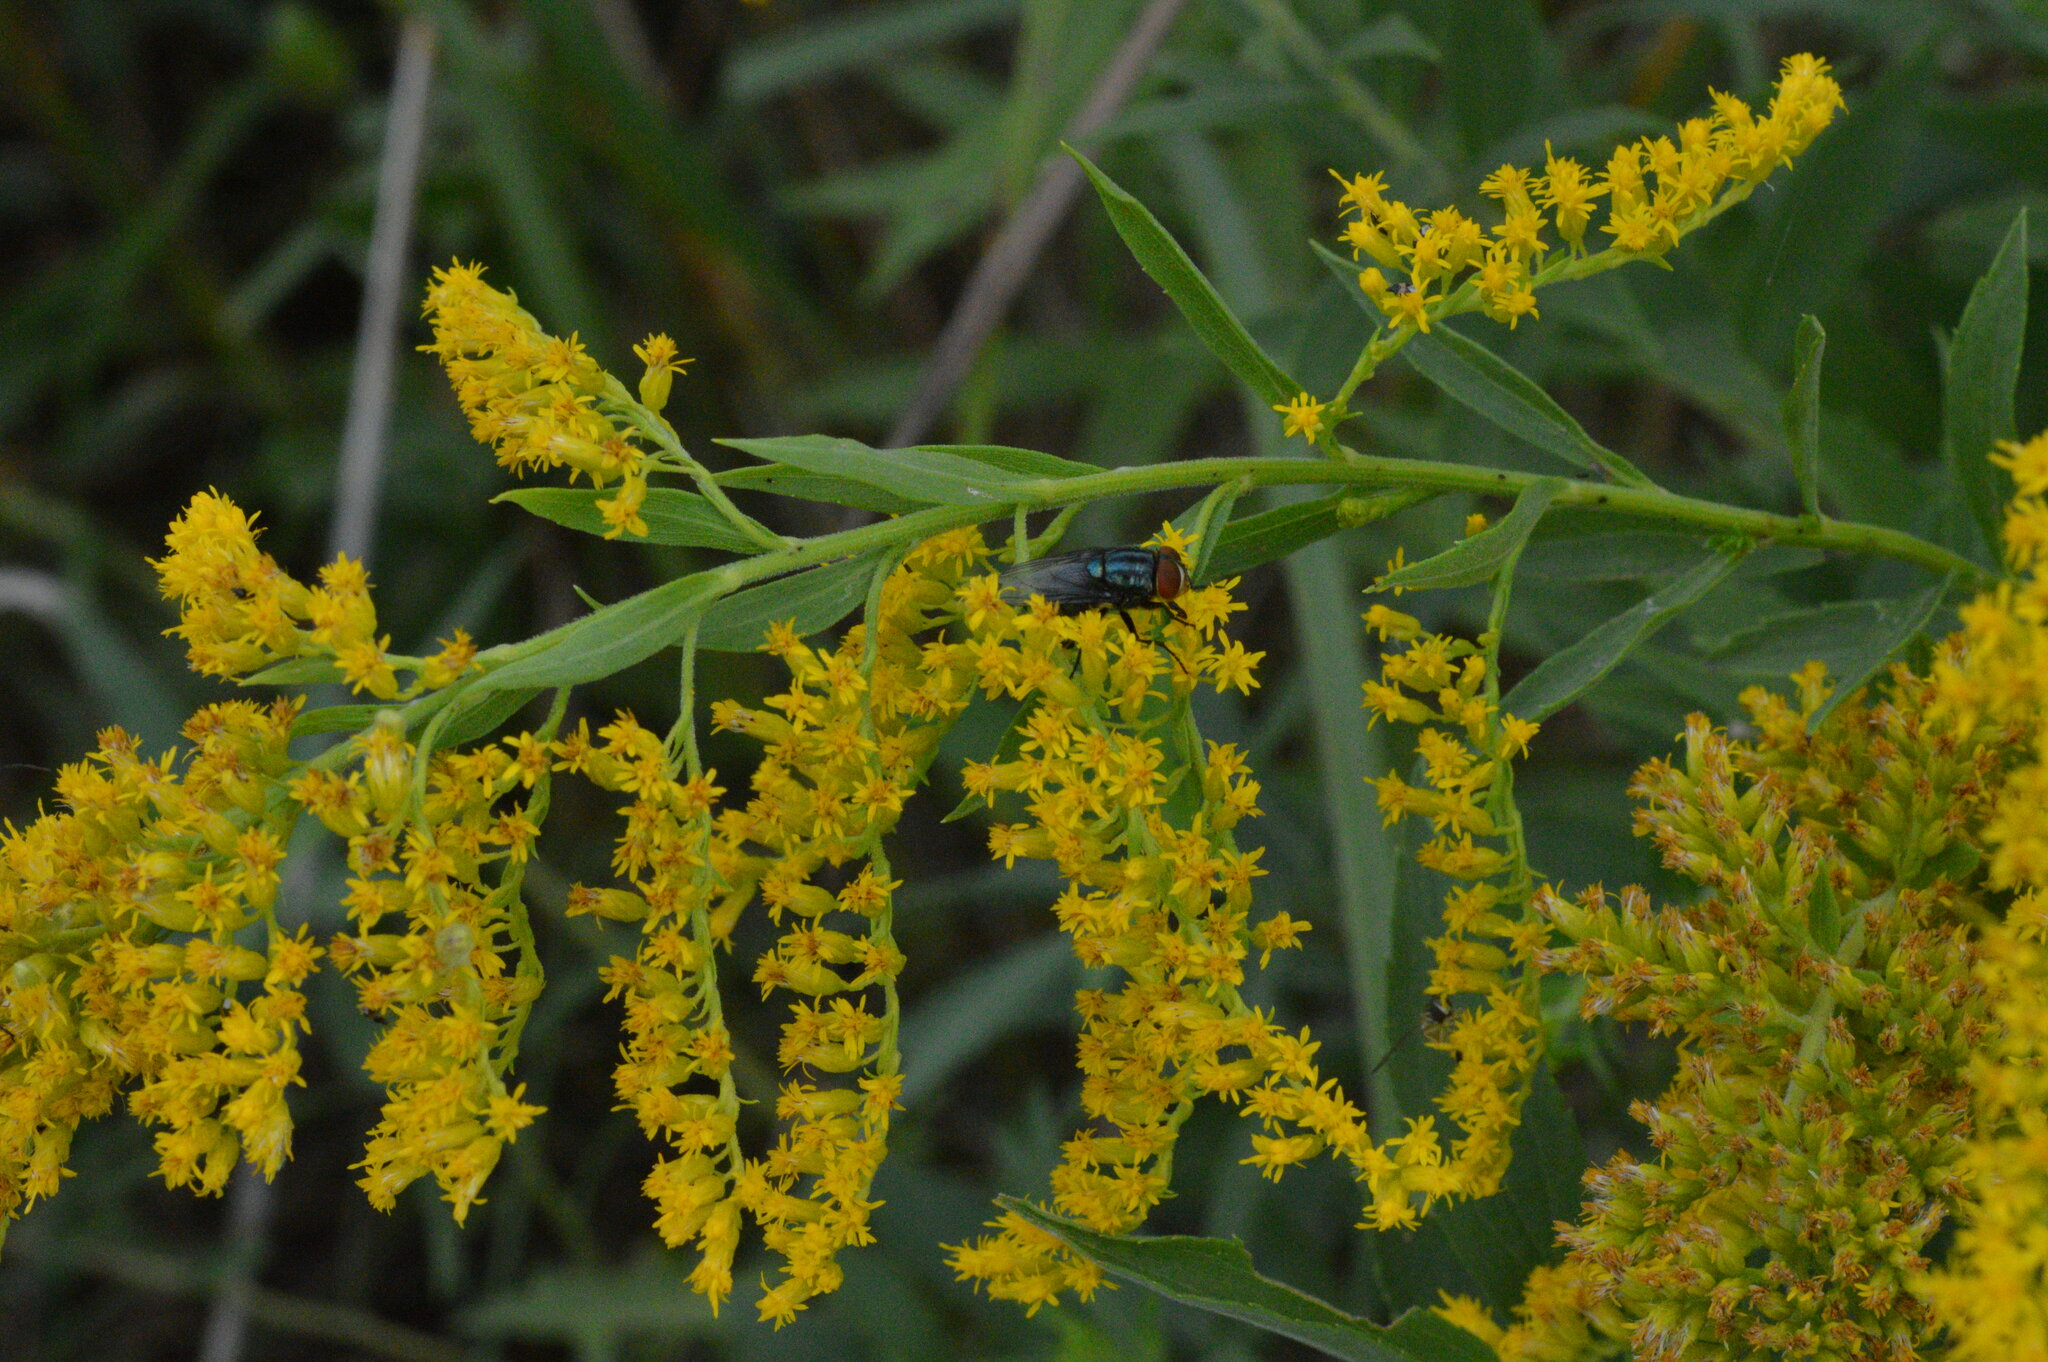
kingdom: Animalia
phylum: Arthropoda
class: Insecta
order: Diptera
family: Calliphoridae
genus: Cochliomyia
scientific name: Cochliomyia macellaria
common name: Secondary screwworm
